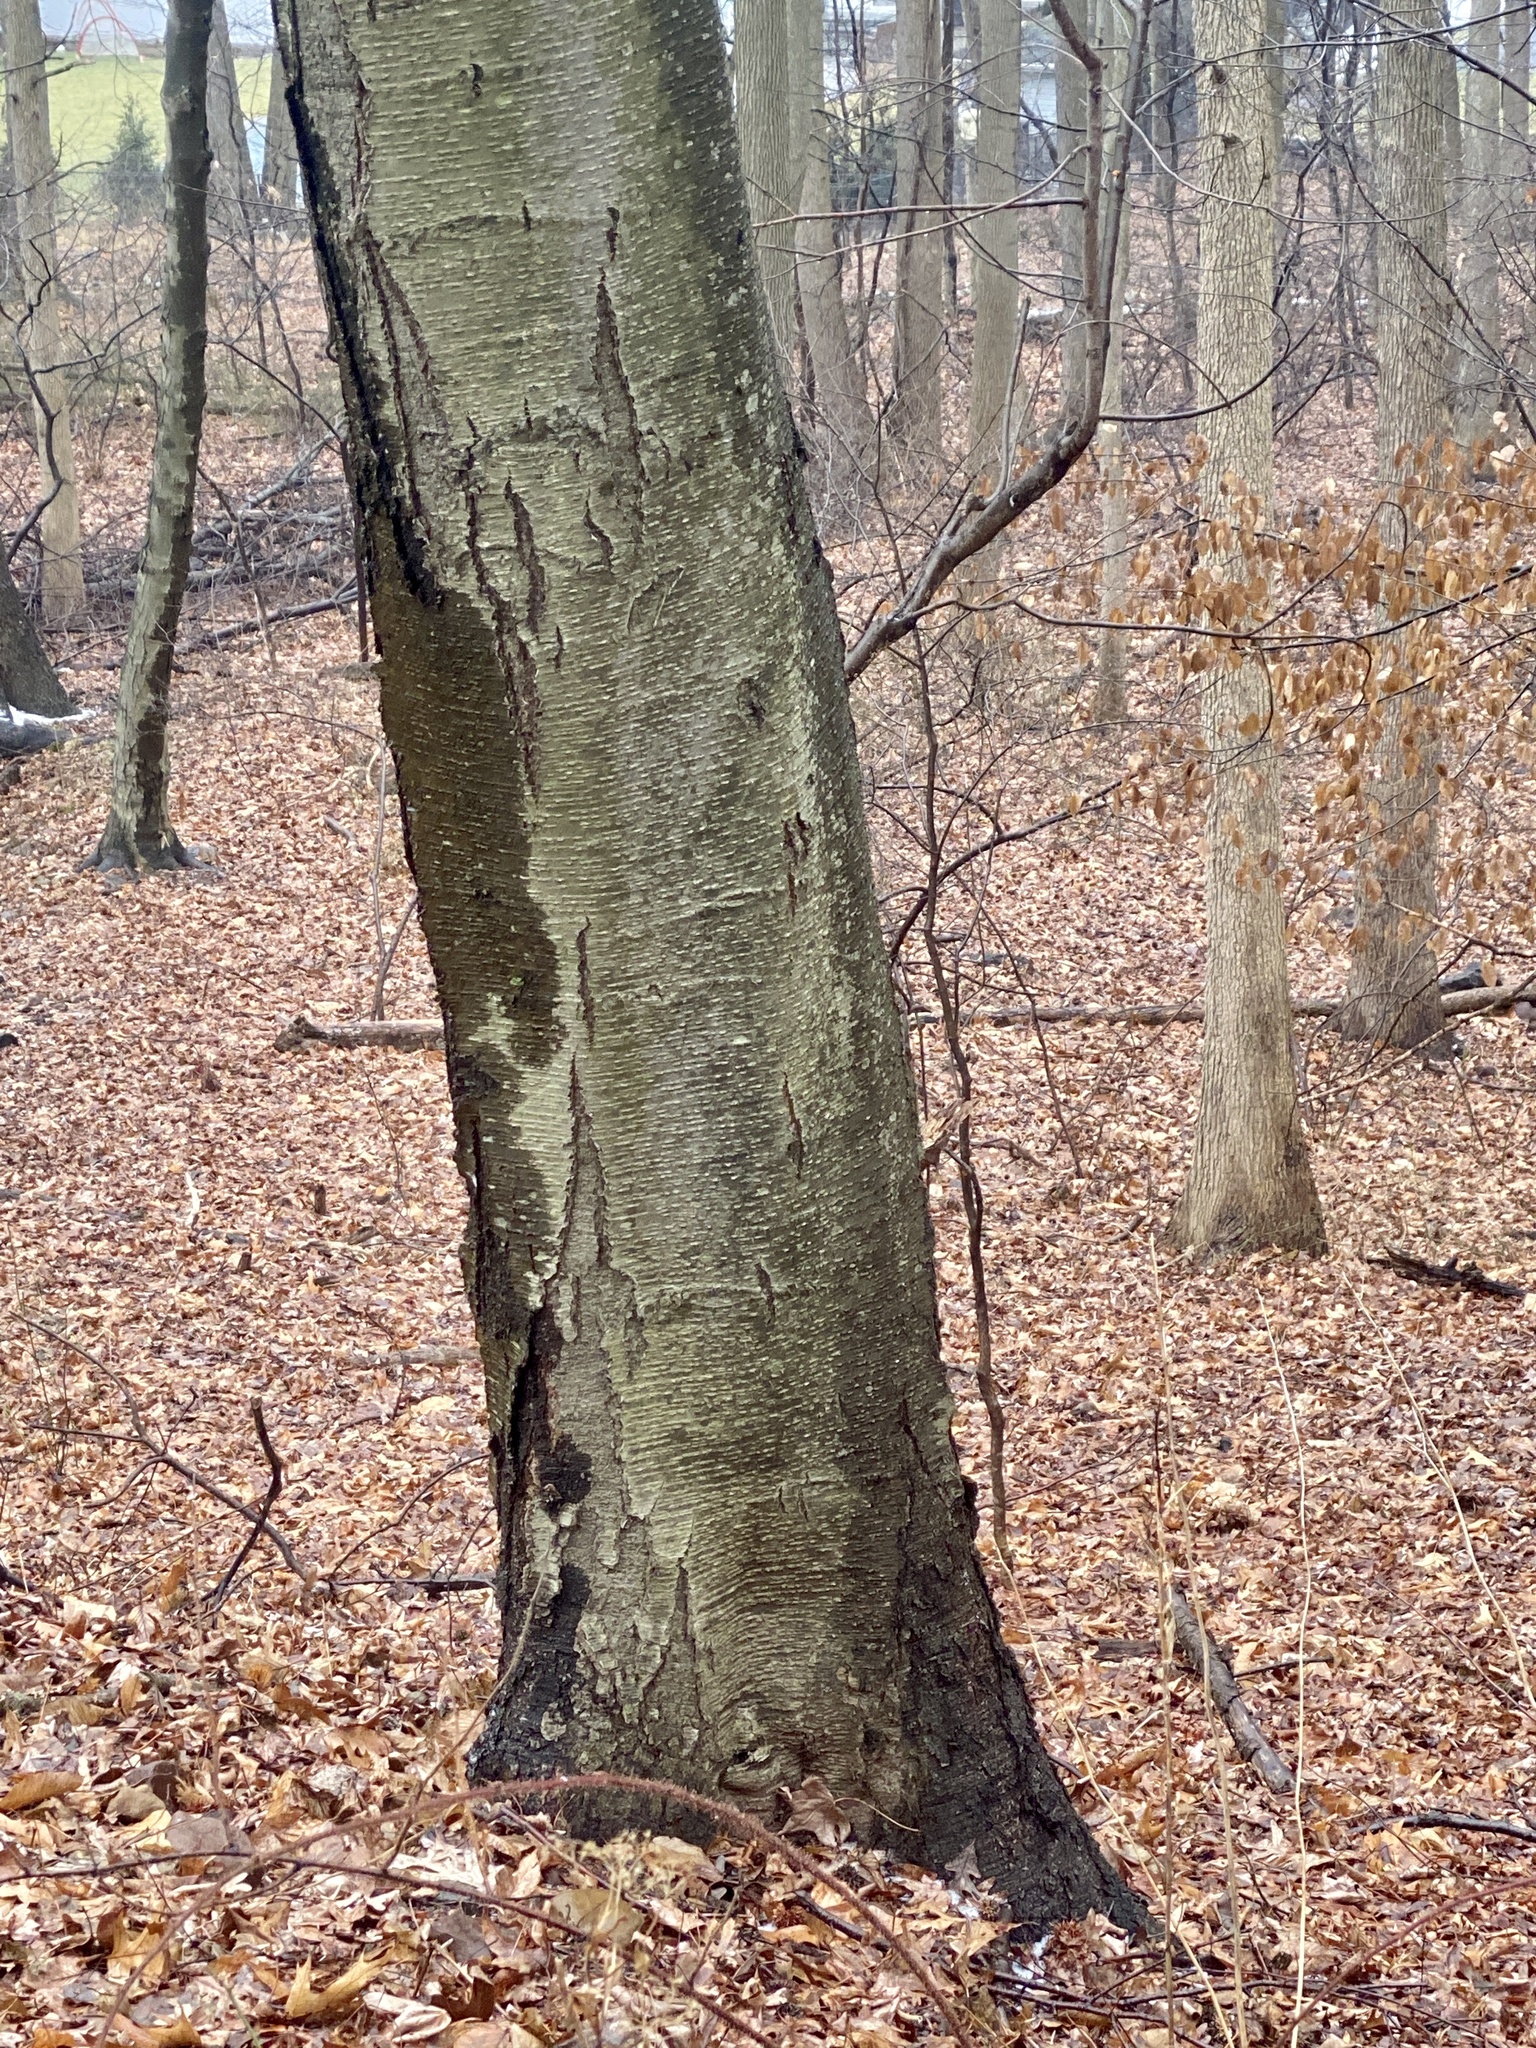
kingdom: Plantae
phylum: Tracheophyta
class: Magnoliopsida
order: Fagales
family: Betulaceae
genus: Betula
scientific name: Betula lenta
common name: Black birch
